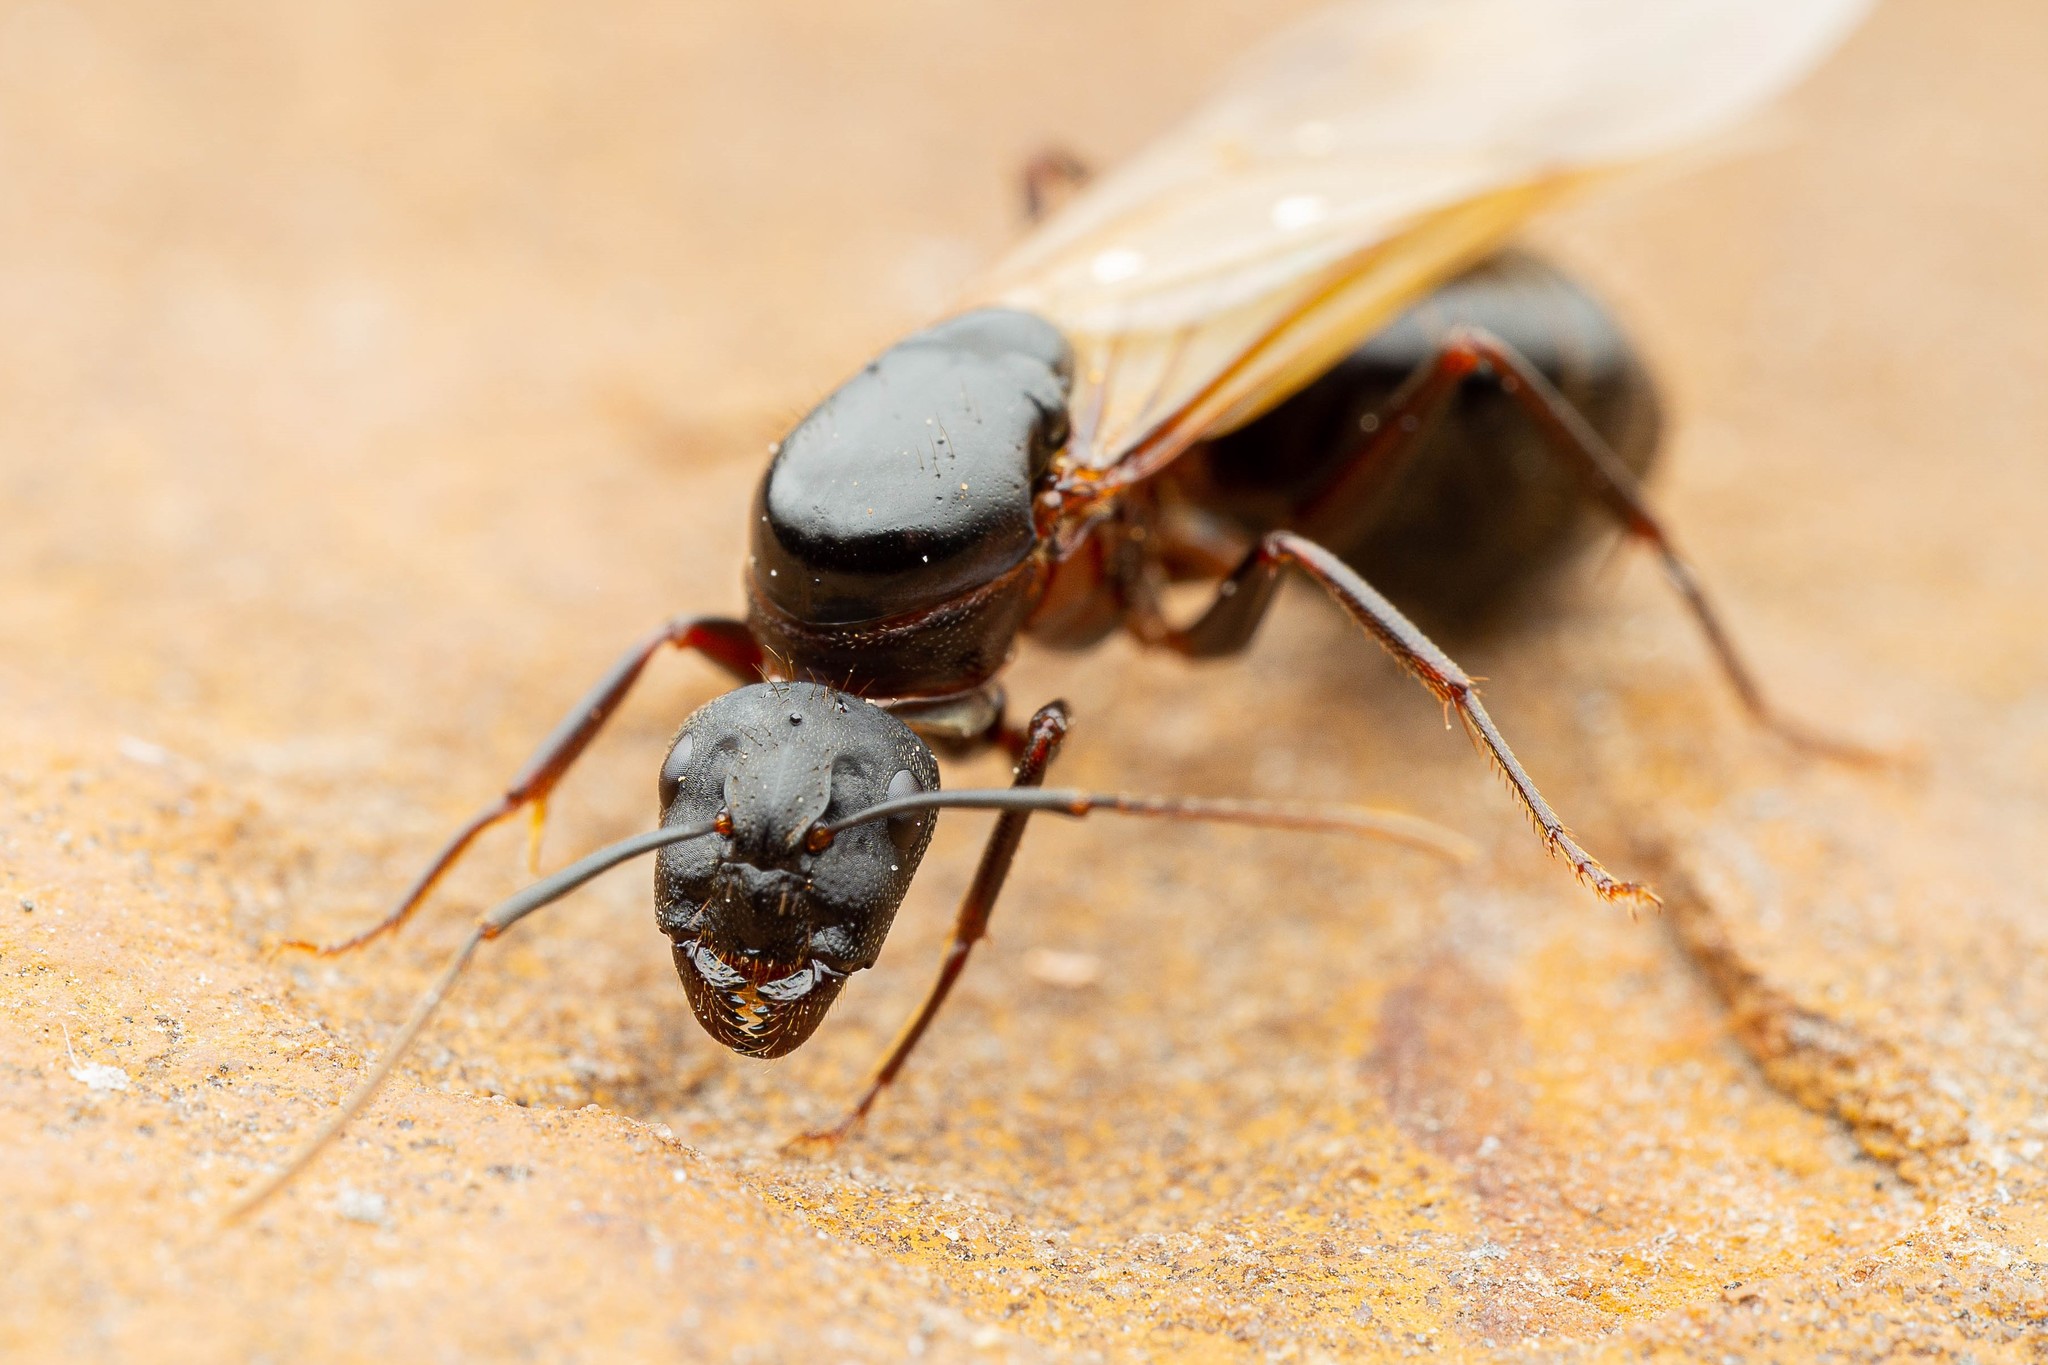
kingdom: Animalia
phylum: Arthropoda
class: Insecta
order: Hymenoptera
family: Formicidae
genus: Camponotus
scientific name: Camponotus vicinus
